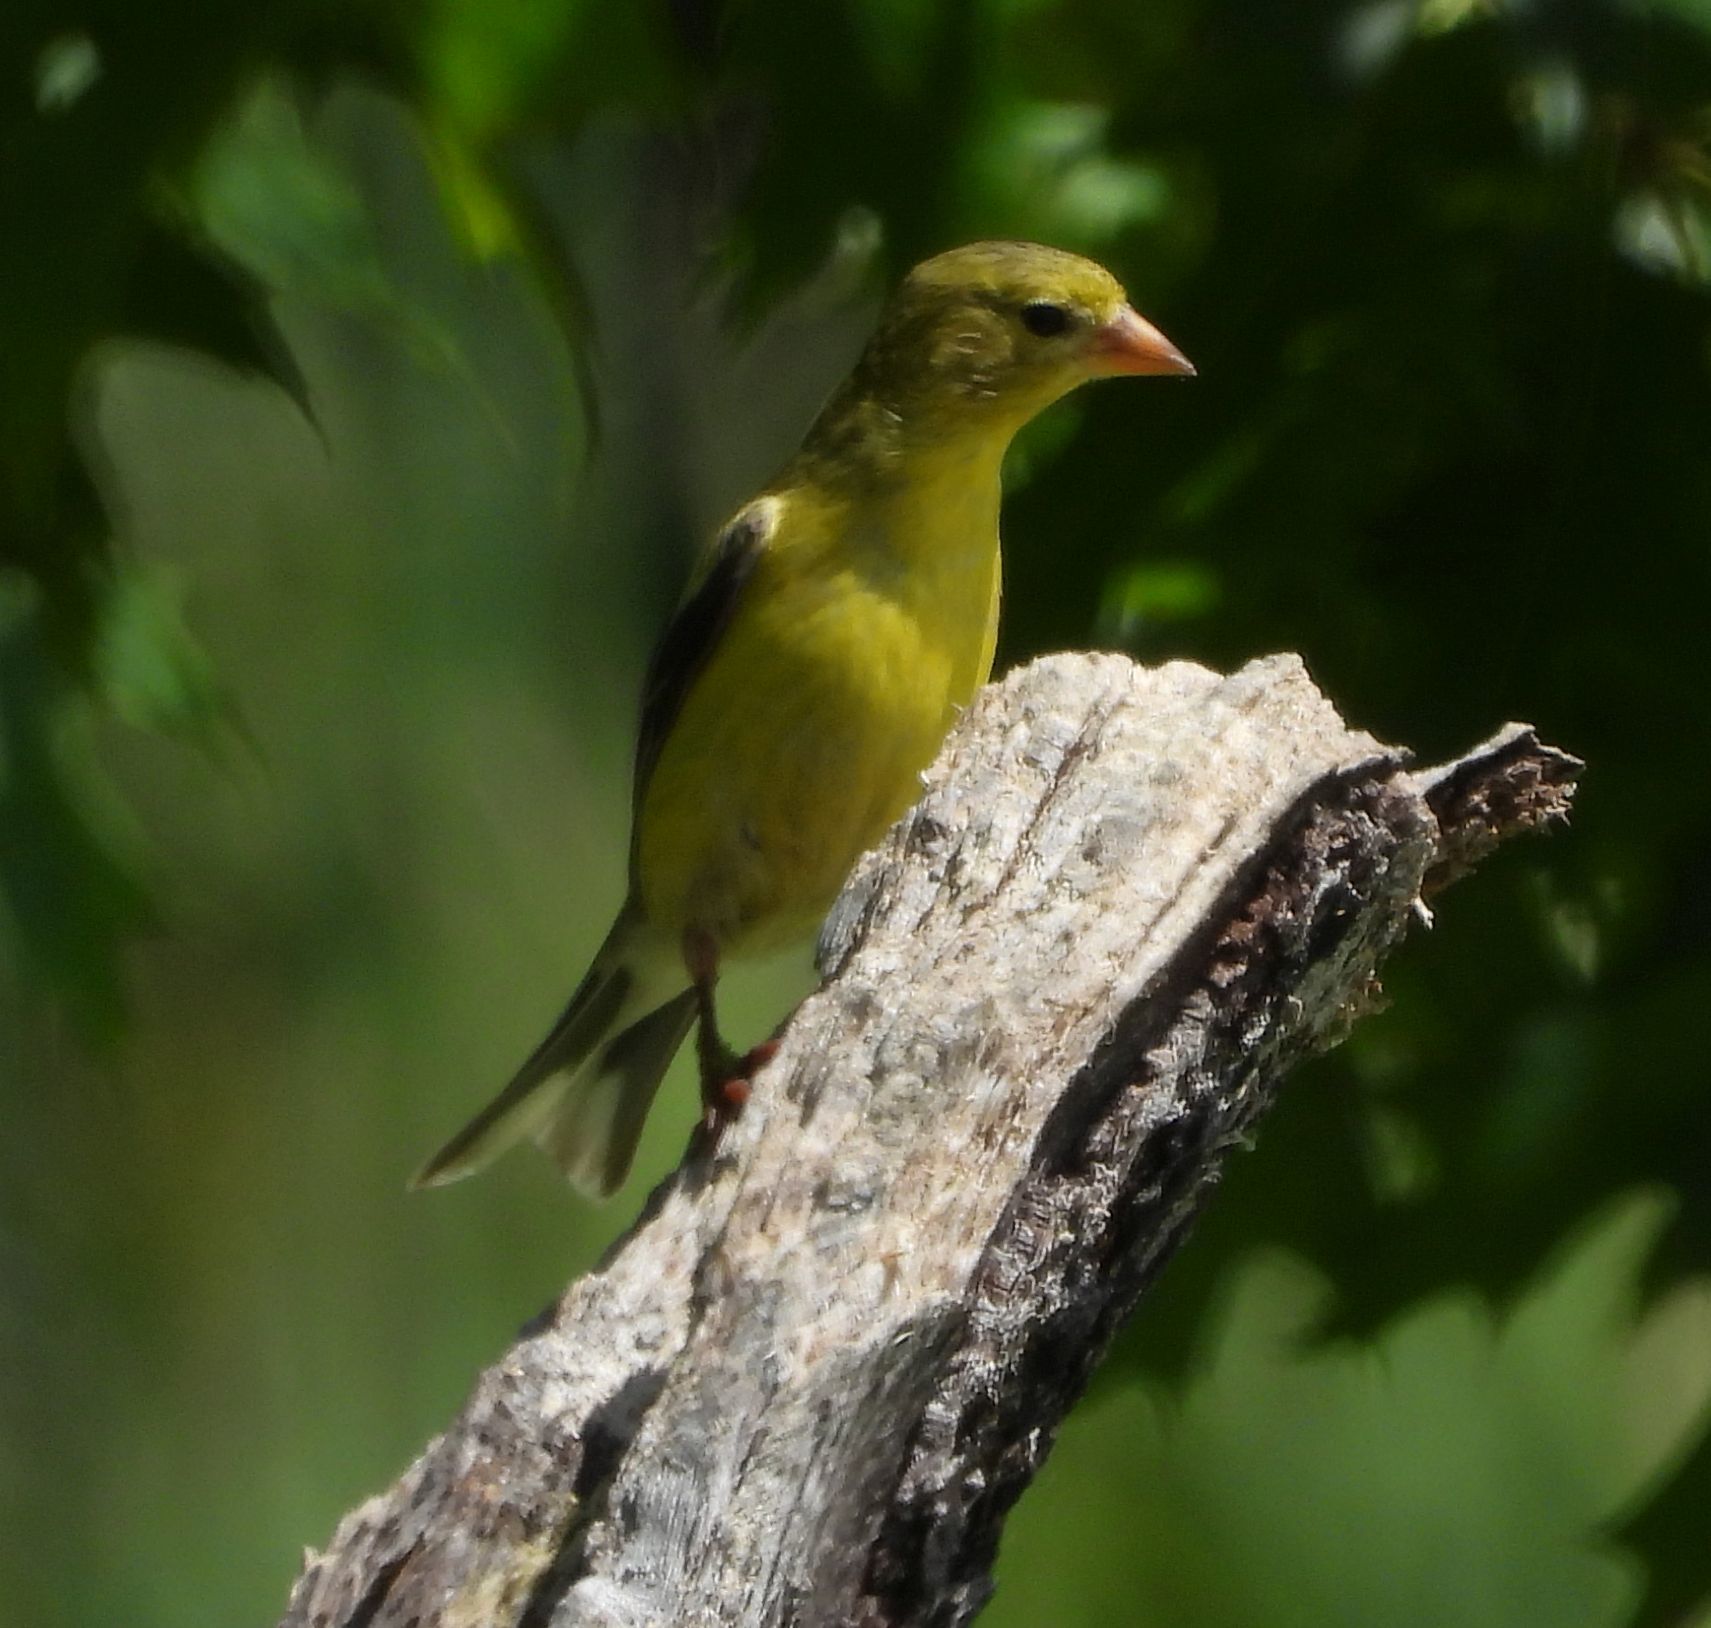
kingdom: Animalia
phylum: Chordata
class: Aves
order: Passeriformes
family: Fringillidae
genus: Spinus
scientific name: Spinus tristis
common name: American goldfinch
